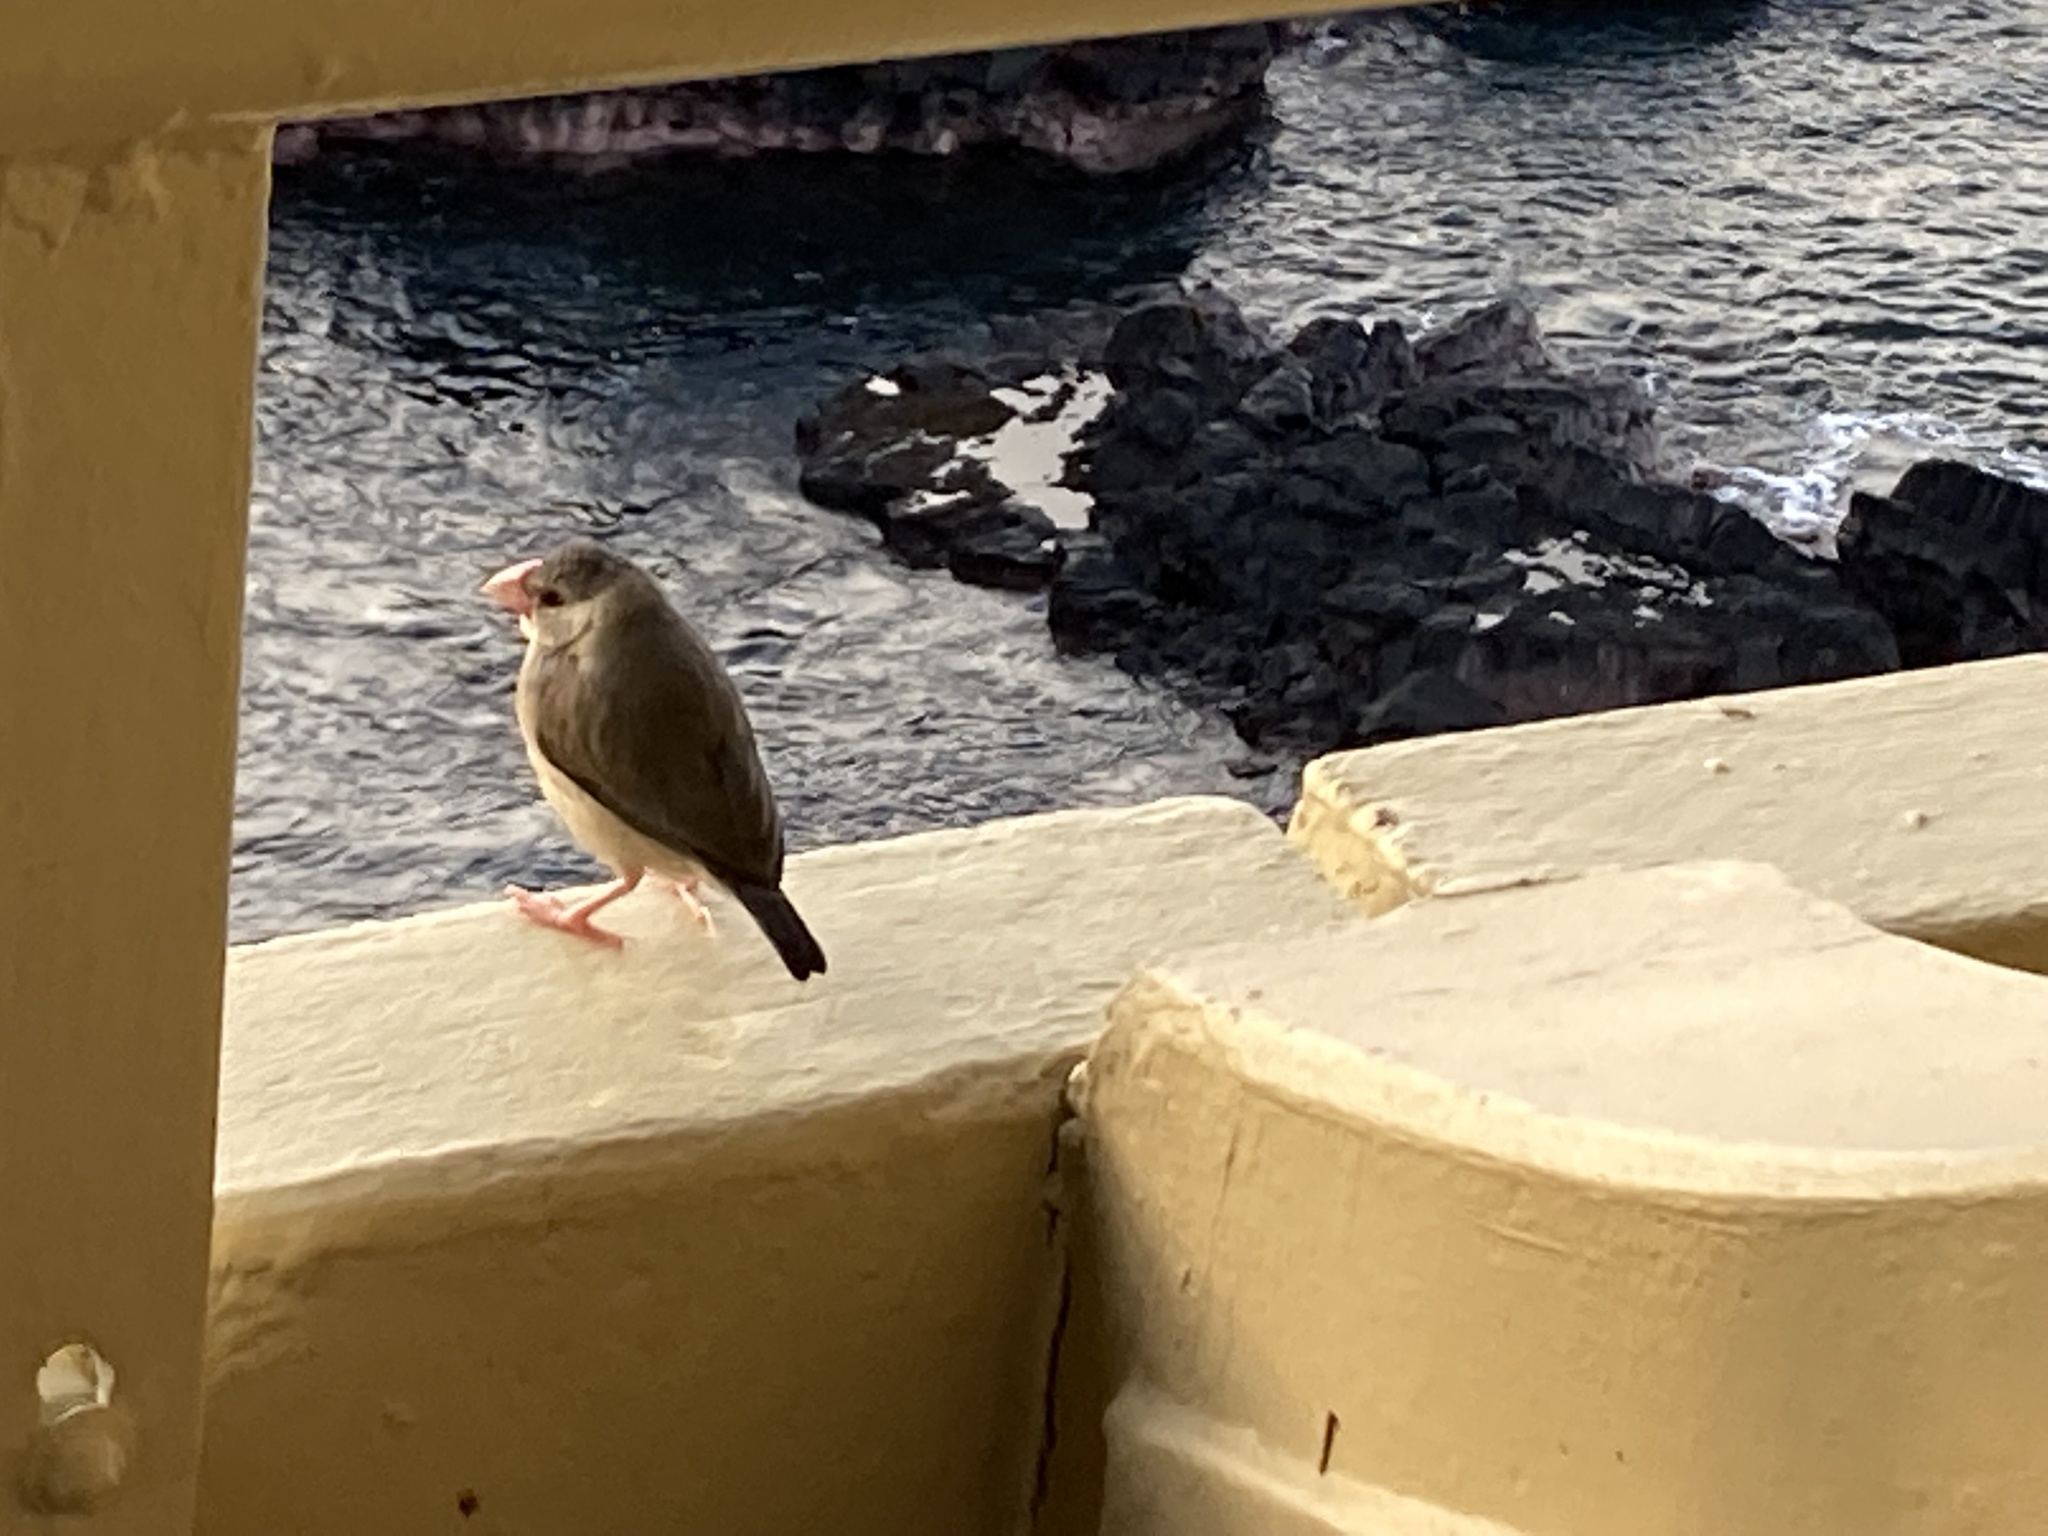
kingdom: Animalia
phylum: Chordata
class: Aves
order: Passeriformes
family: Estrildidae
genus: Lonchura
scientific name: Lonchura oryzivora
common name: Java sparrow
